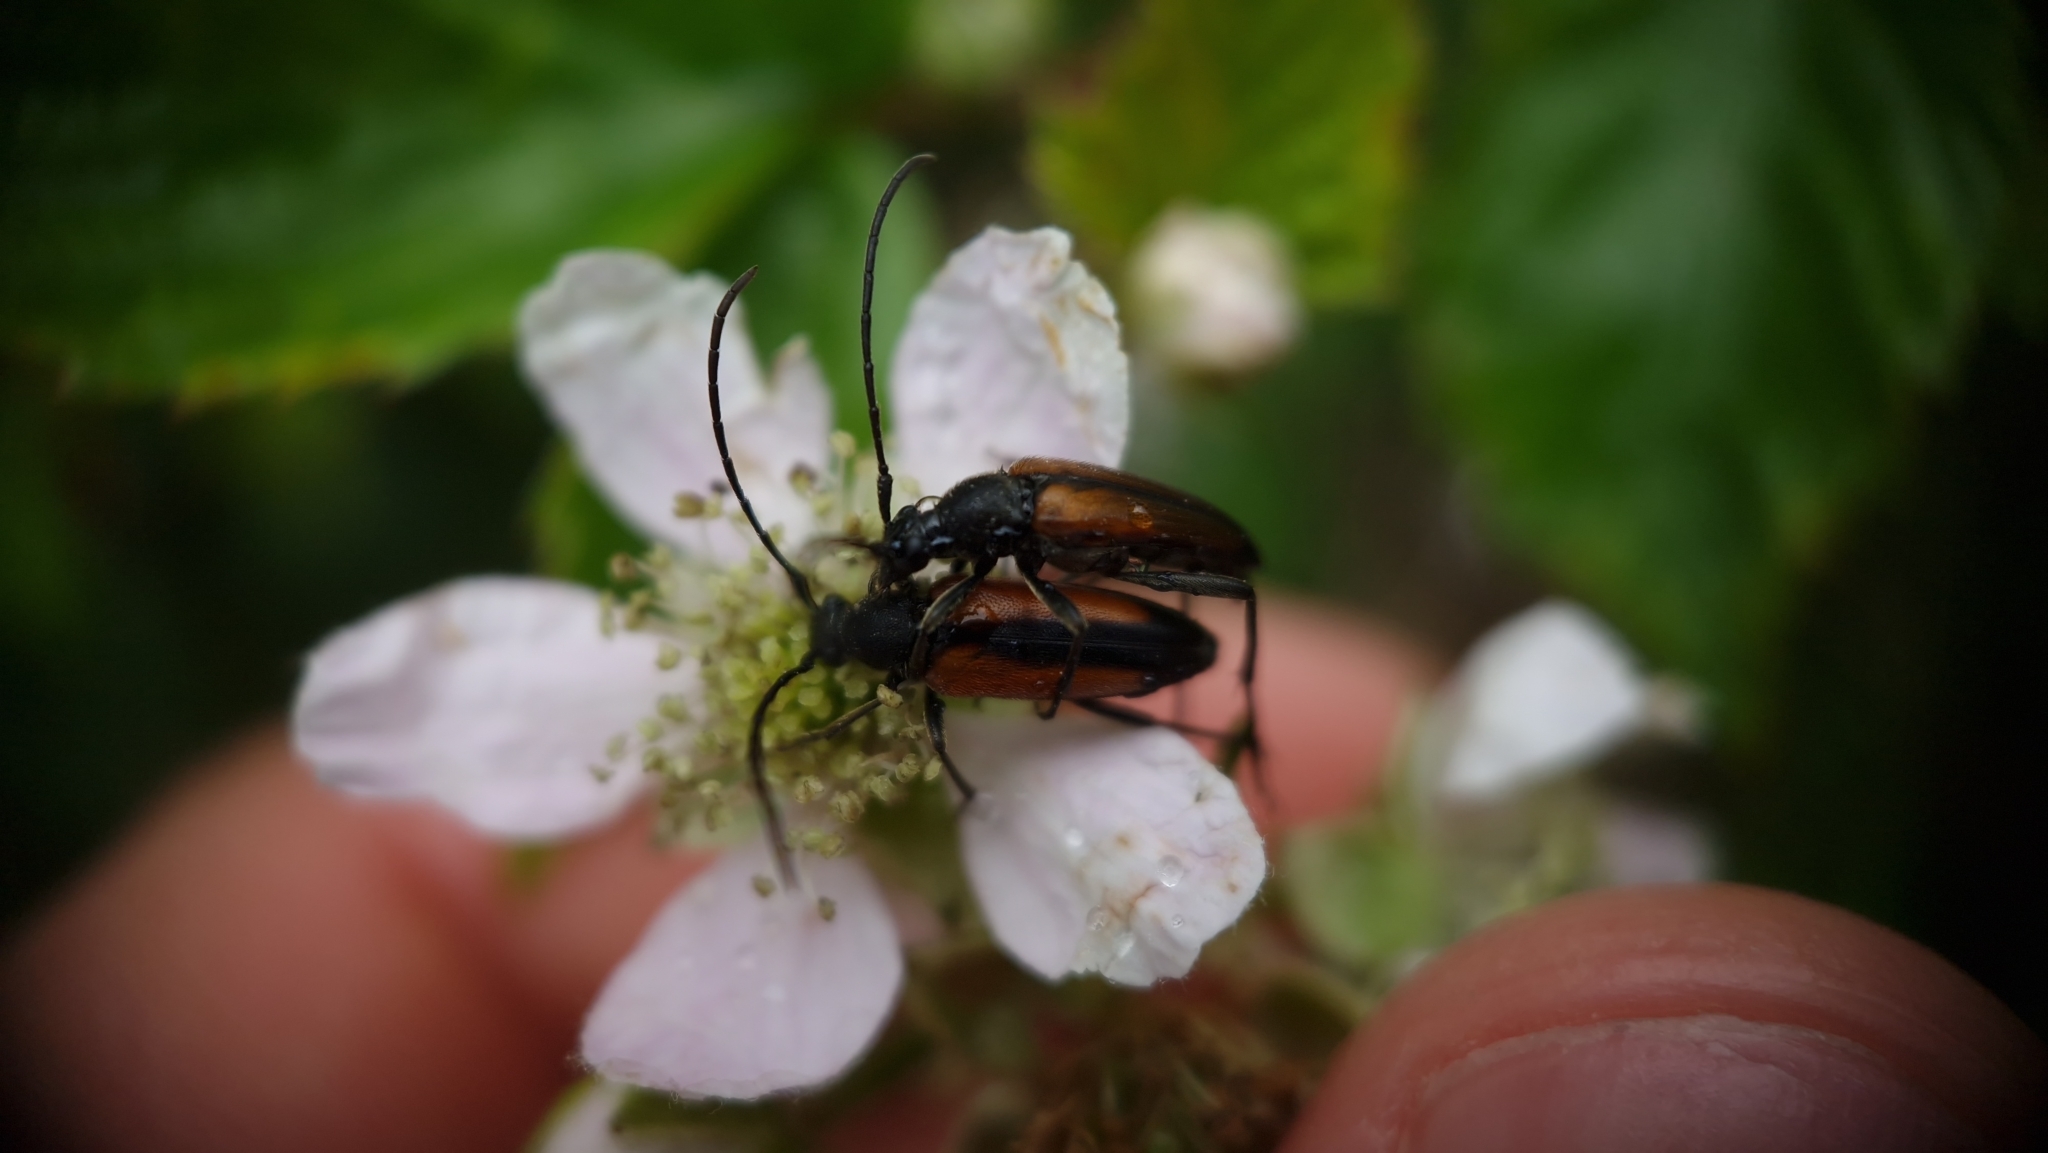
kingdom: Animalia
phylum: Arthropoda
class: Insecta
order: Coleoptera
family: Cerambycidae
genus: Stenurella
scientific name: Stenurella melanura
